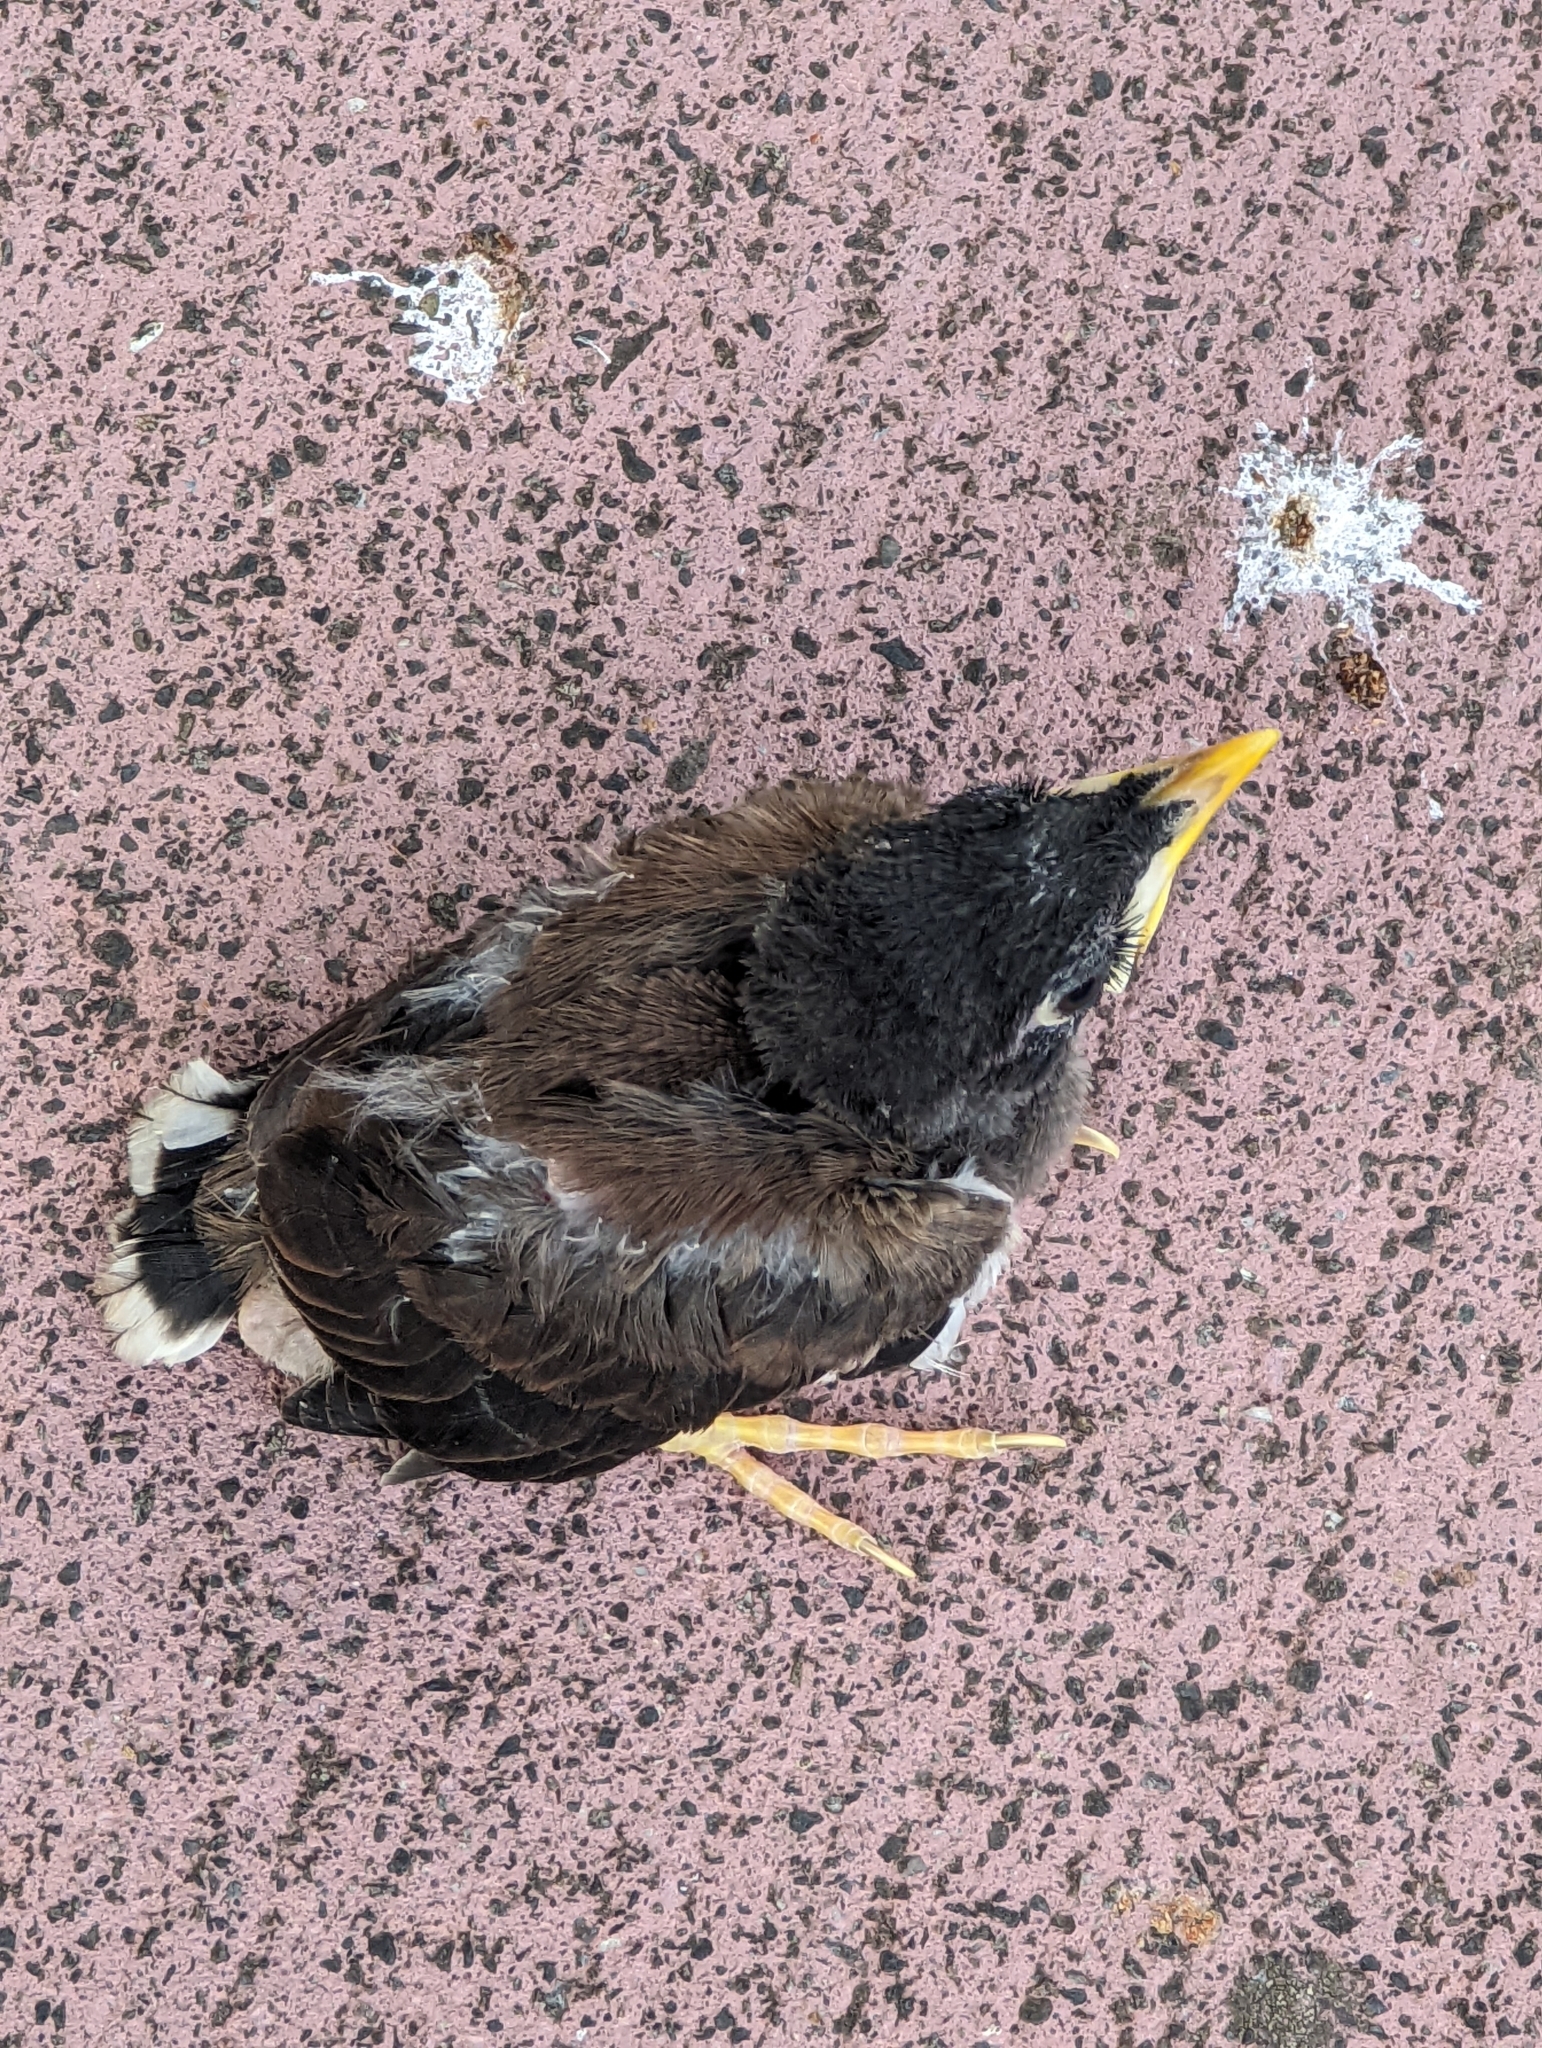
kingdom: Animalia
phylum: Chordata
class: Aves
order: Passeriformes
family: Sturnidae
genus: Acridotheres
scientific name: Acridotheres tristis
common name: Common myna
